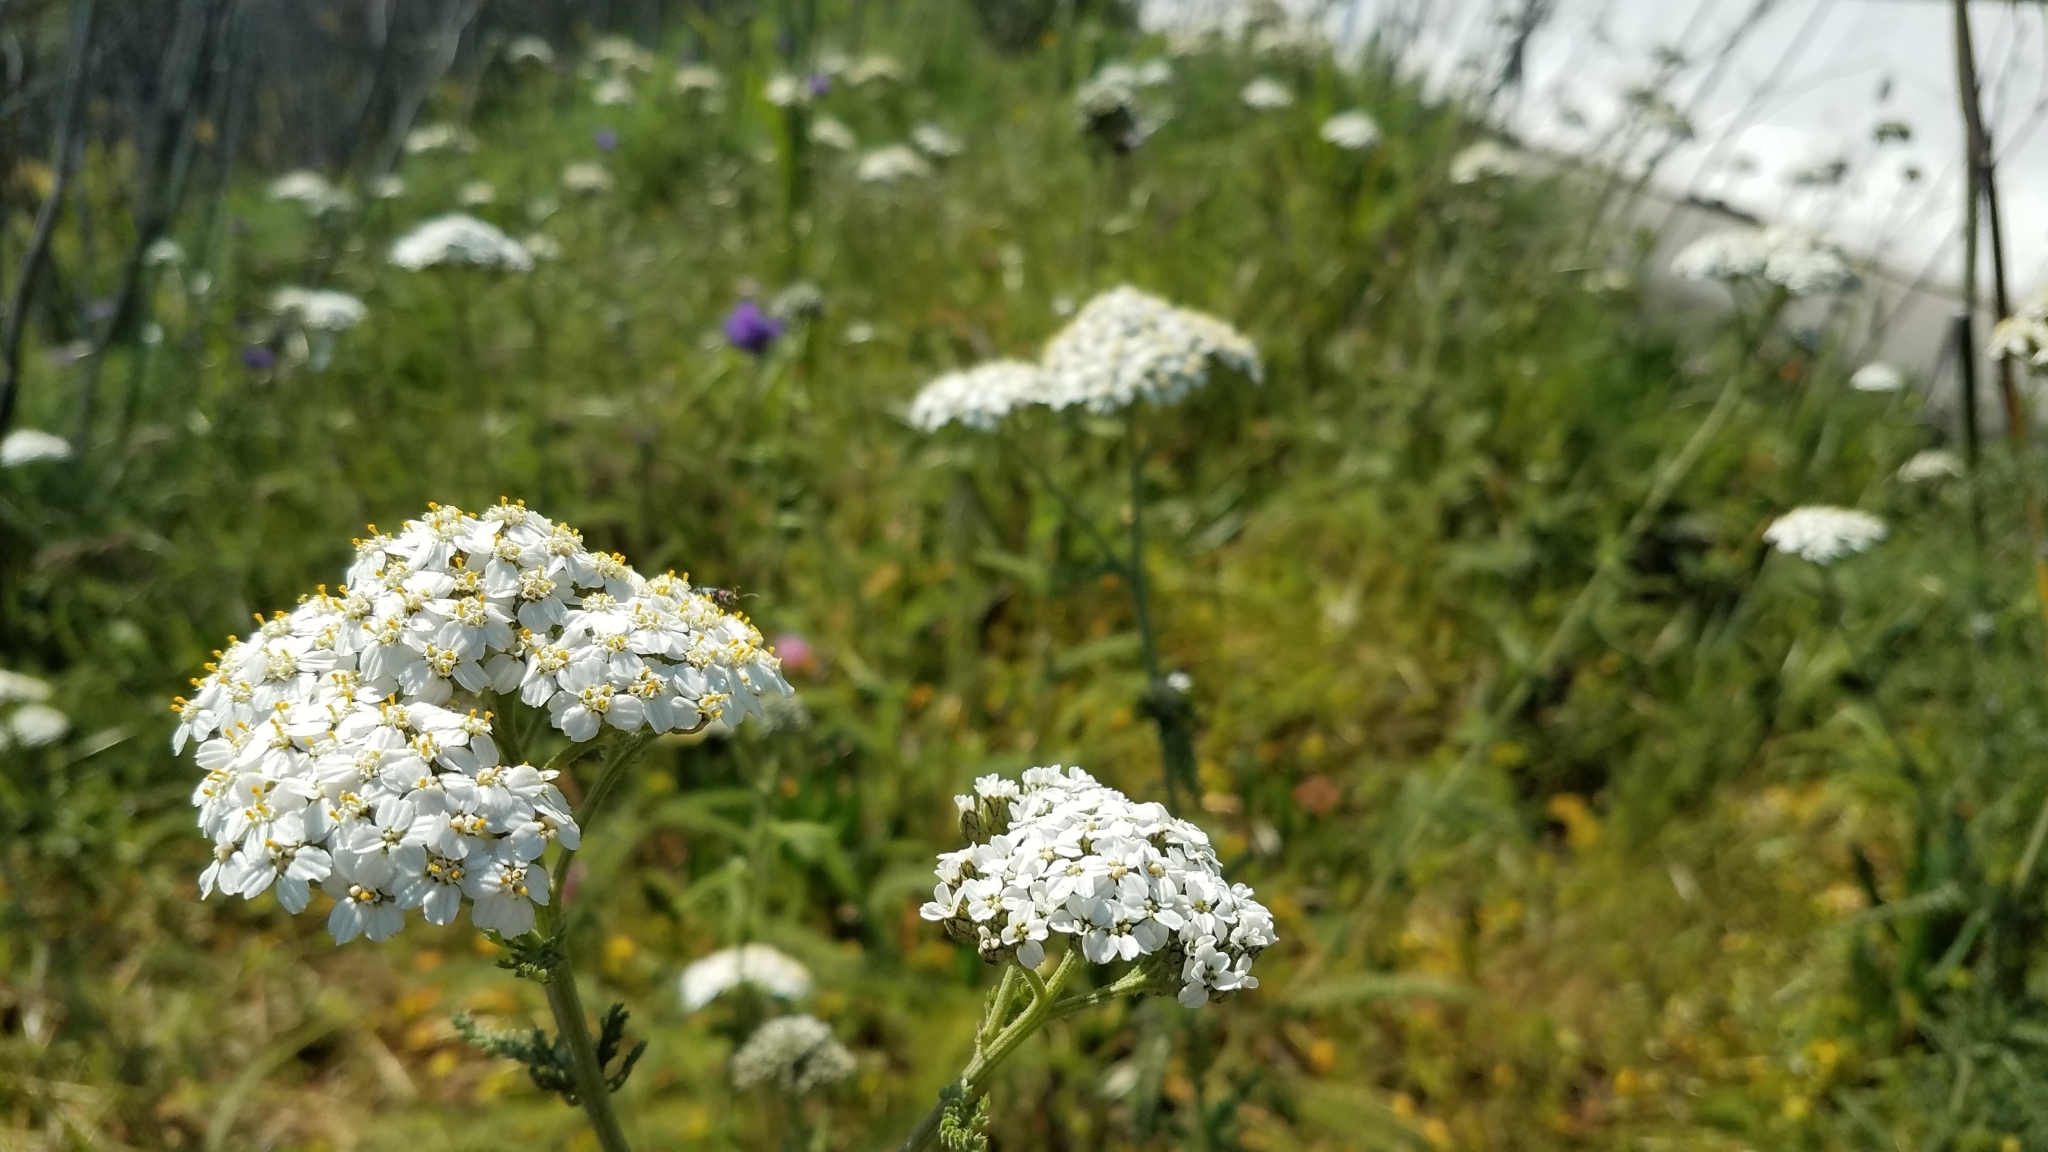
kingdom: Plantae
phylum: Tracheophyta
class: Magnoliopsida
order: Asterales
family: Asteraceae
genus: Achillea
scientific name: Achillea millefolium
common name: Yarrow
